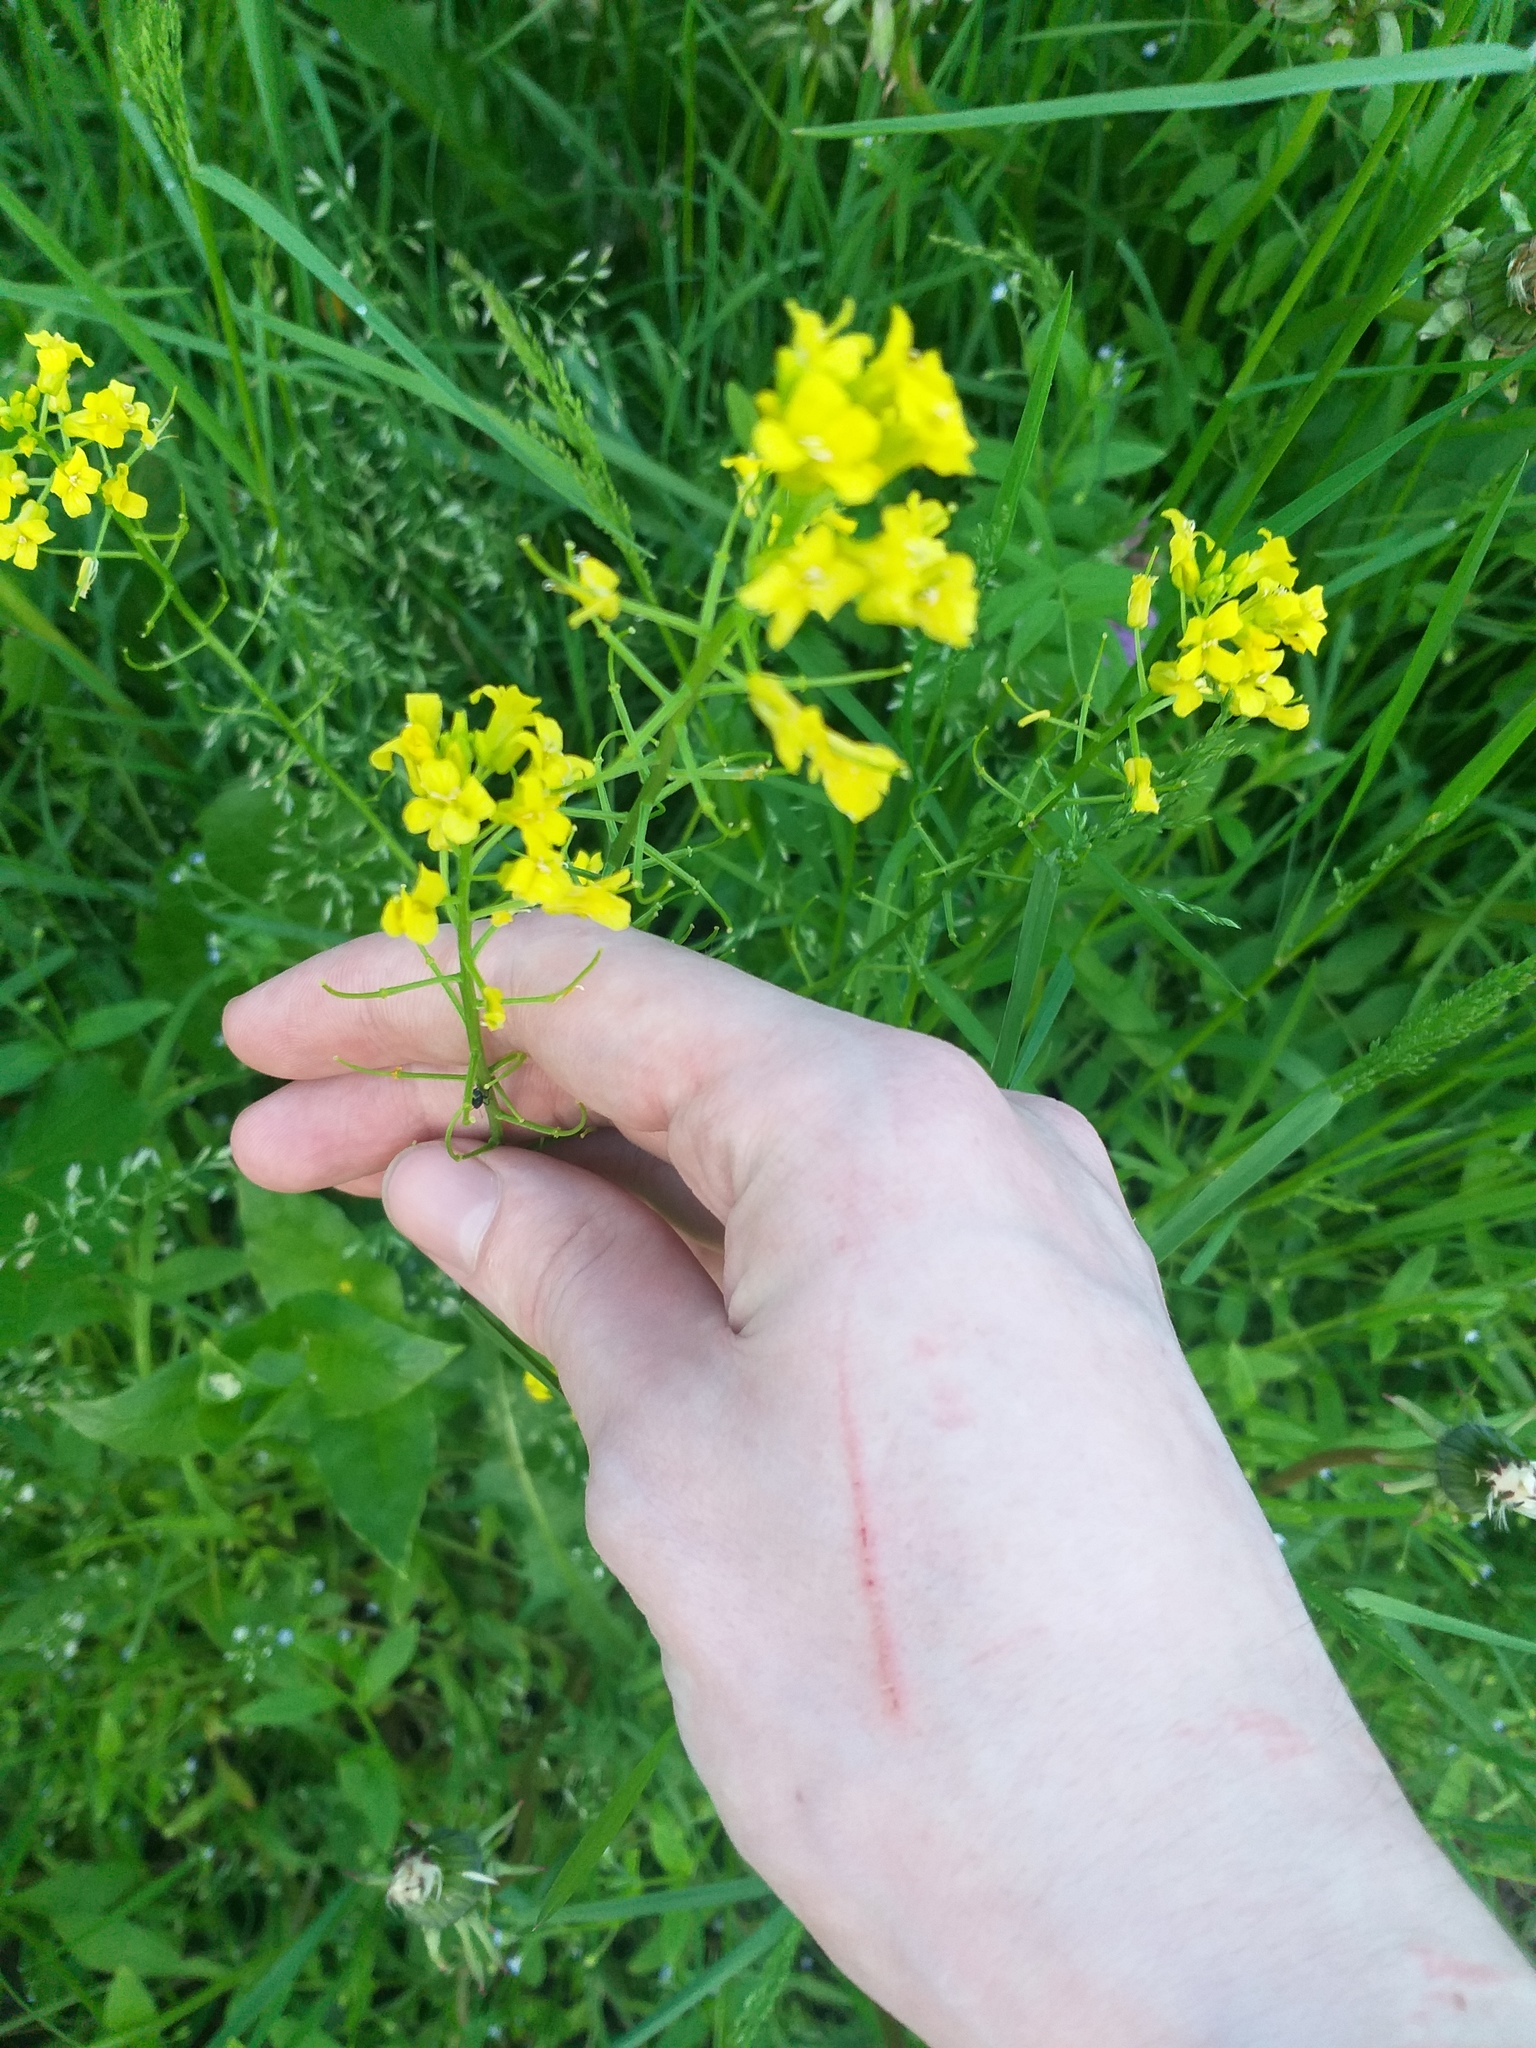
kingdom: Plantae
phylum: Tracheophyta
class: Magnoliopsida
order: Brassicales
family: Brassicaceae
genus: Barbarea
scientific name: Barbarea vulgaris
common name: Cressy-greens
